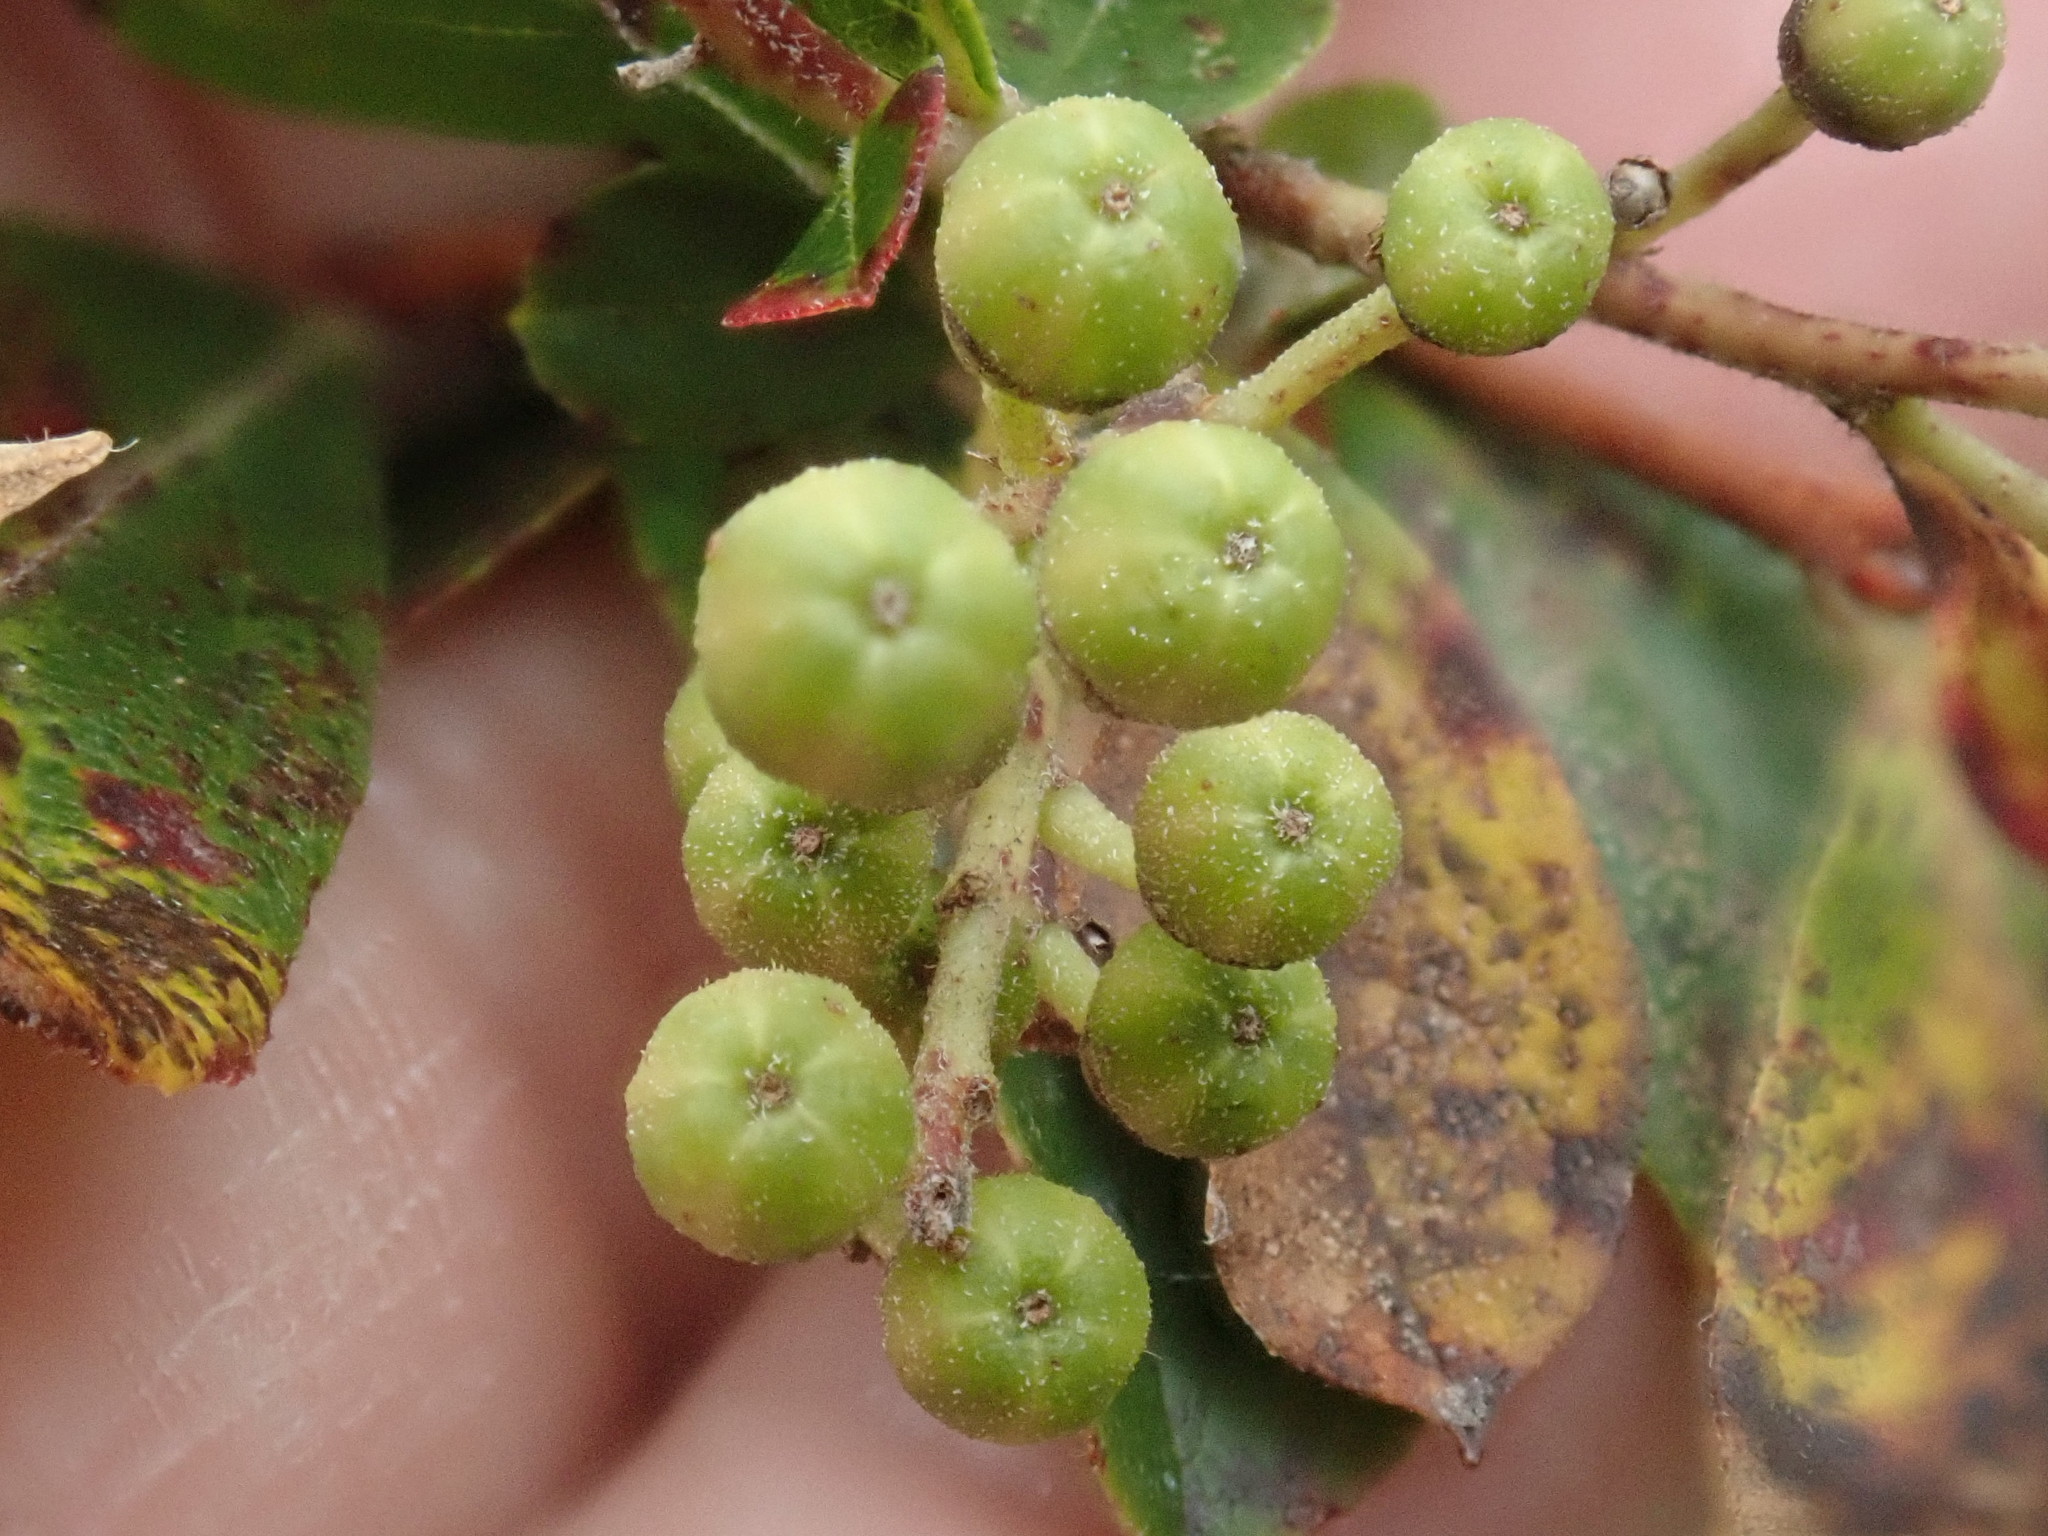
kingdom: Plantae
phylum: Tracheophyta
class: Magnoliopsida
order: Ericales
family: Ericaceae
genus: Lyonia
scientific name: Lyonia ligustrina
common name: Maleberry
